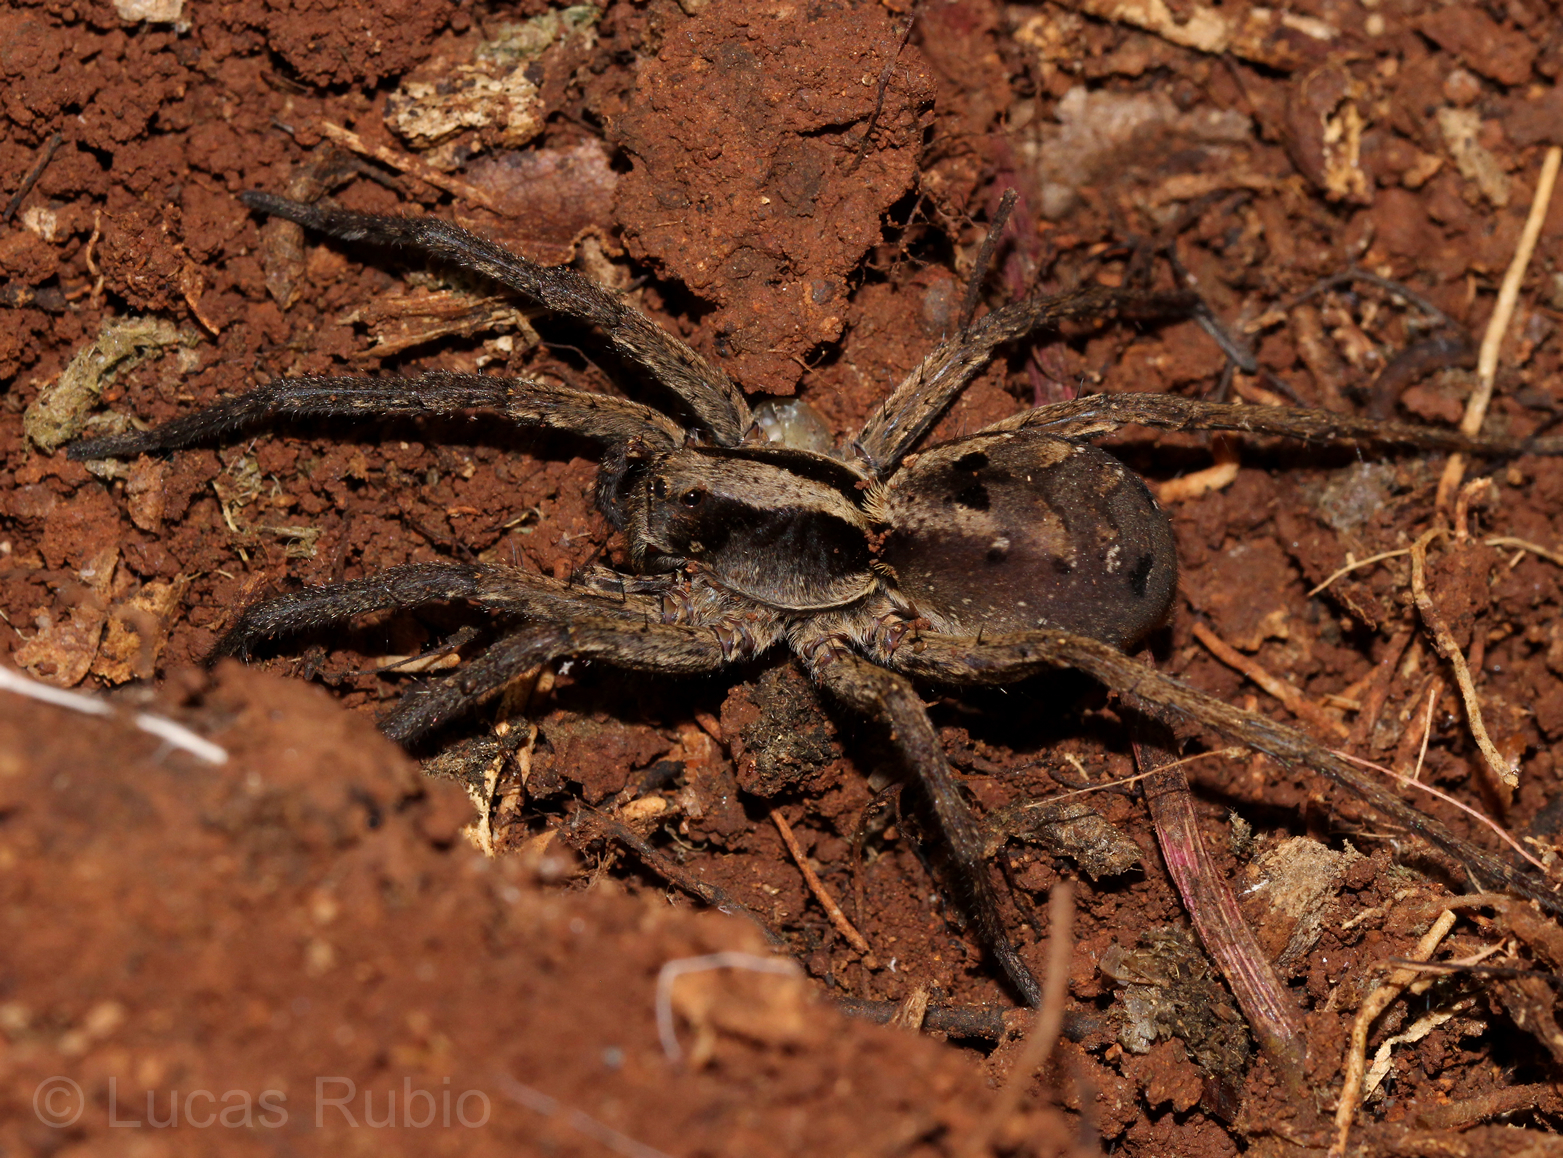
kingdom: Animalia
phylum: Arthropoda
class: Arachnida
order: Araneae
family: Lycosidae
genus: Hogna
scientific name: Hogna gumia
